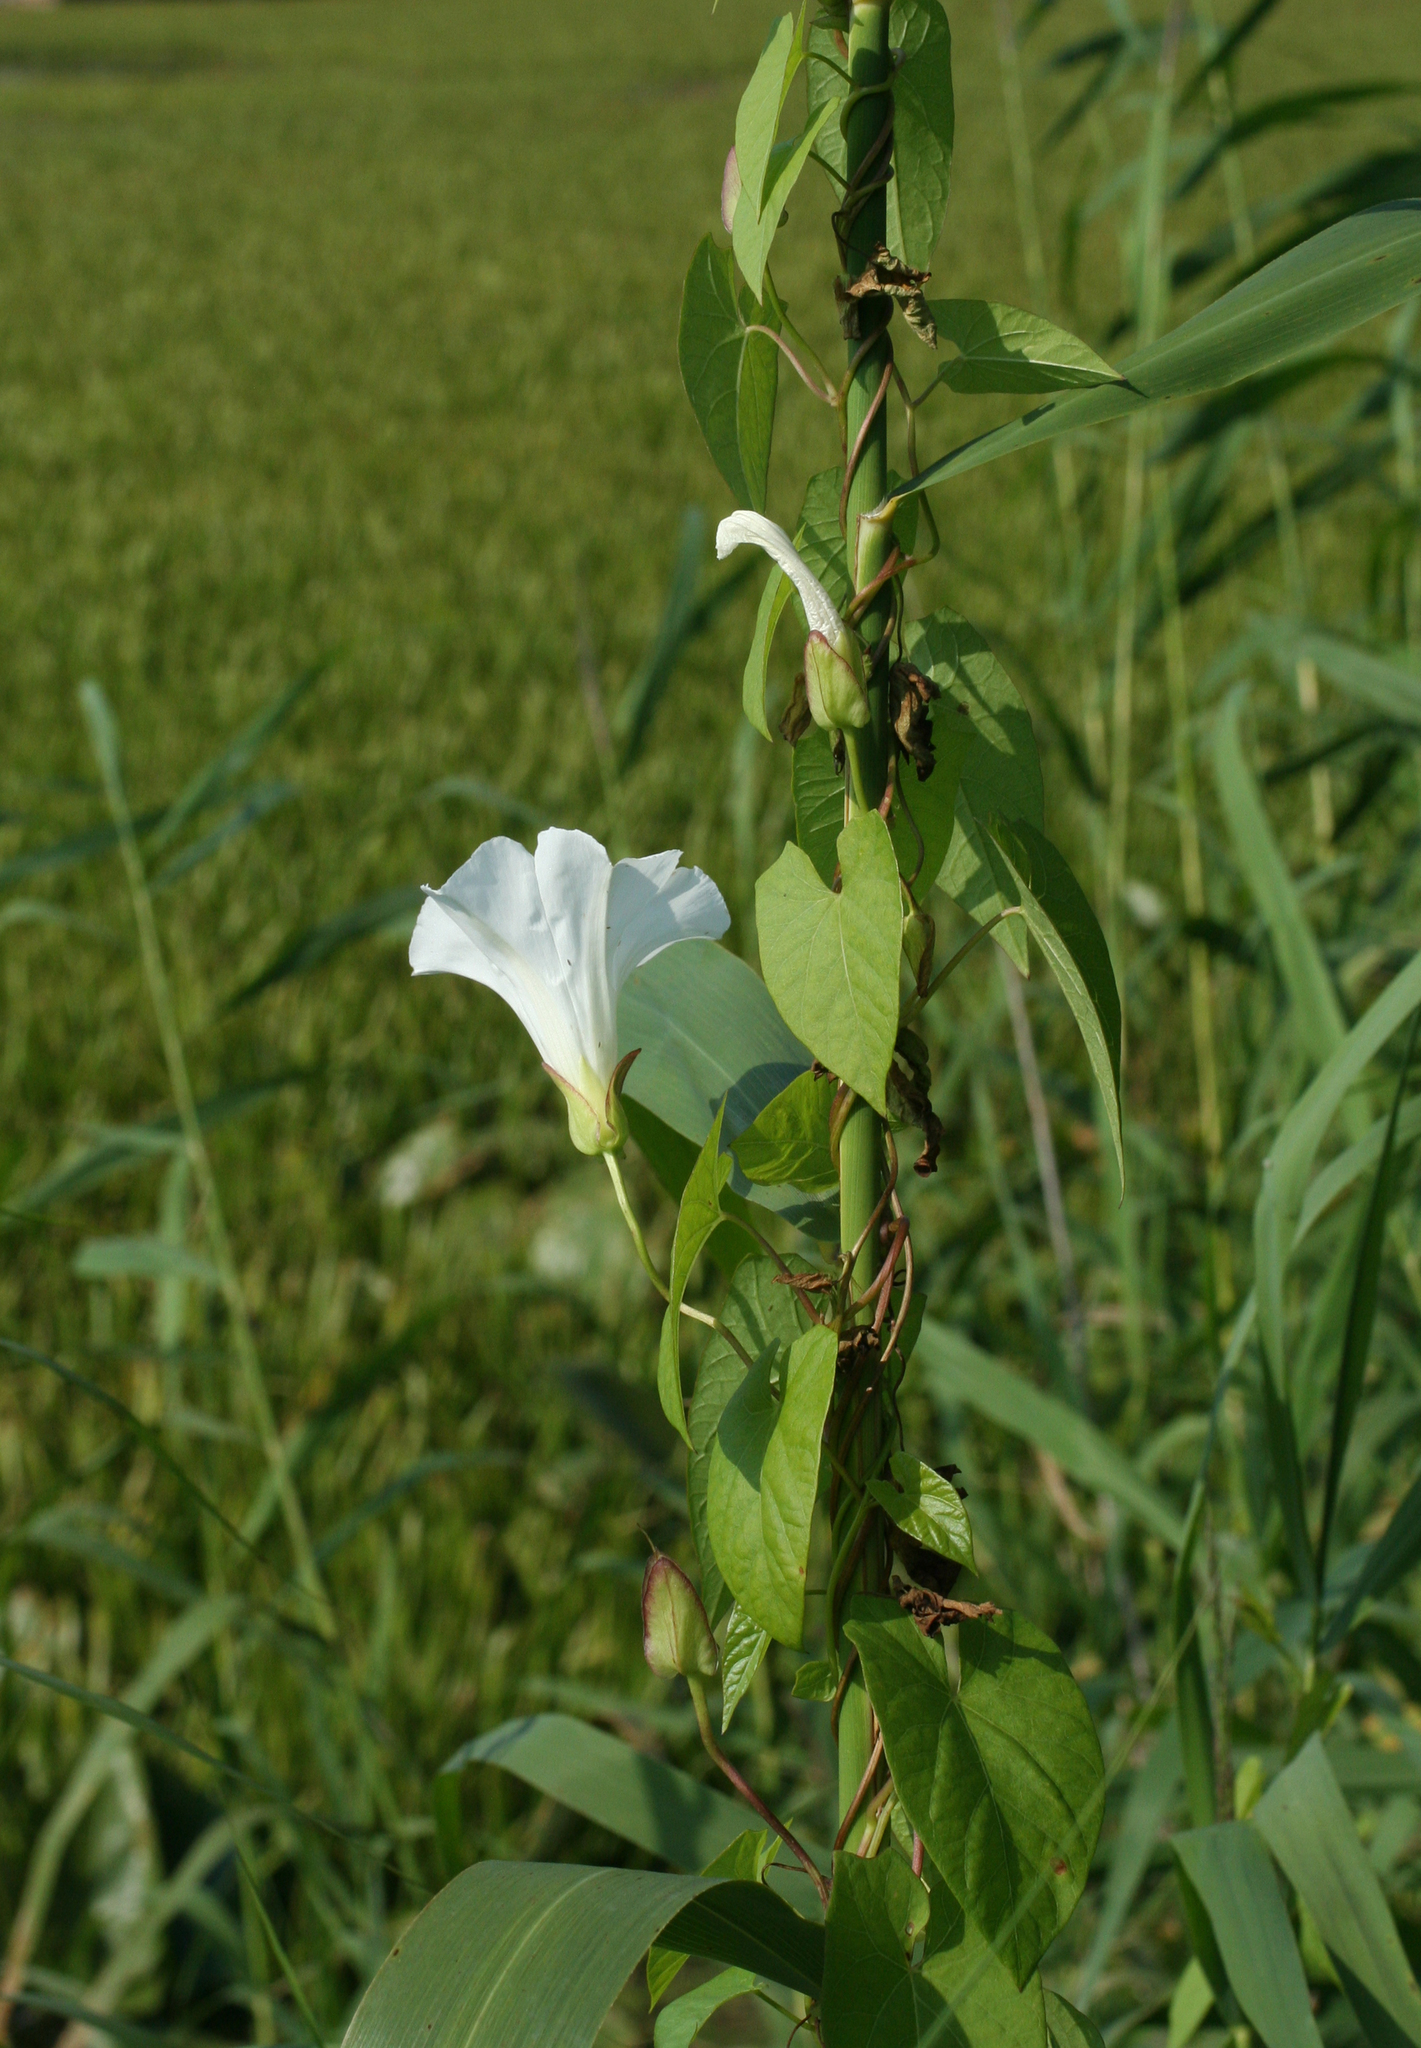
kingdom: Plantae
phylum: Tracheophyta
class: Magnoliopsida
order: Solanales
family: Convolvulaceae
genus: Calystegia
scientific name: Calystegia sepium
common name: Hedge bindweed
